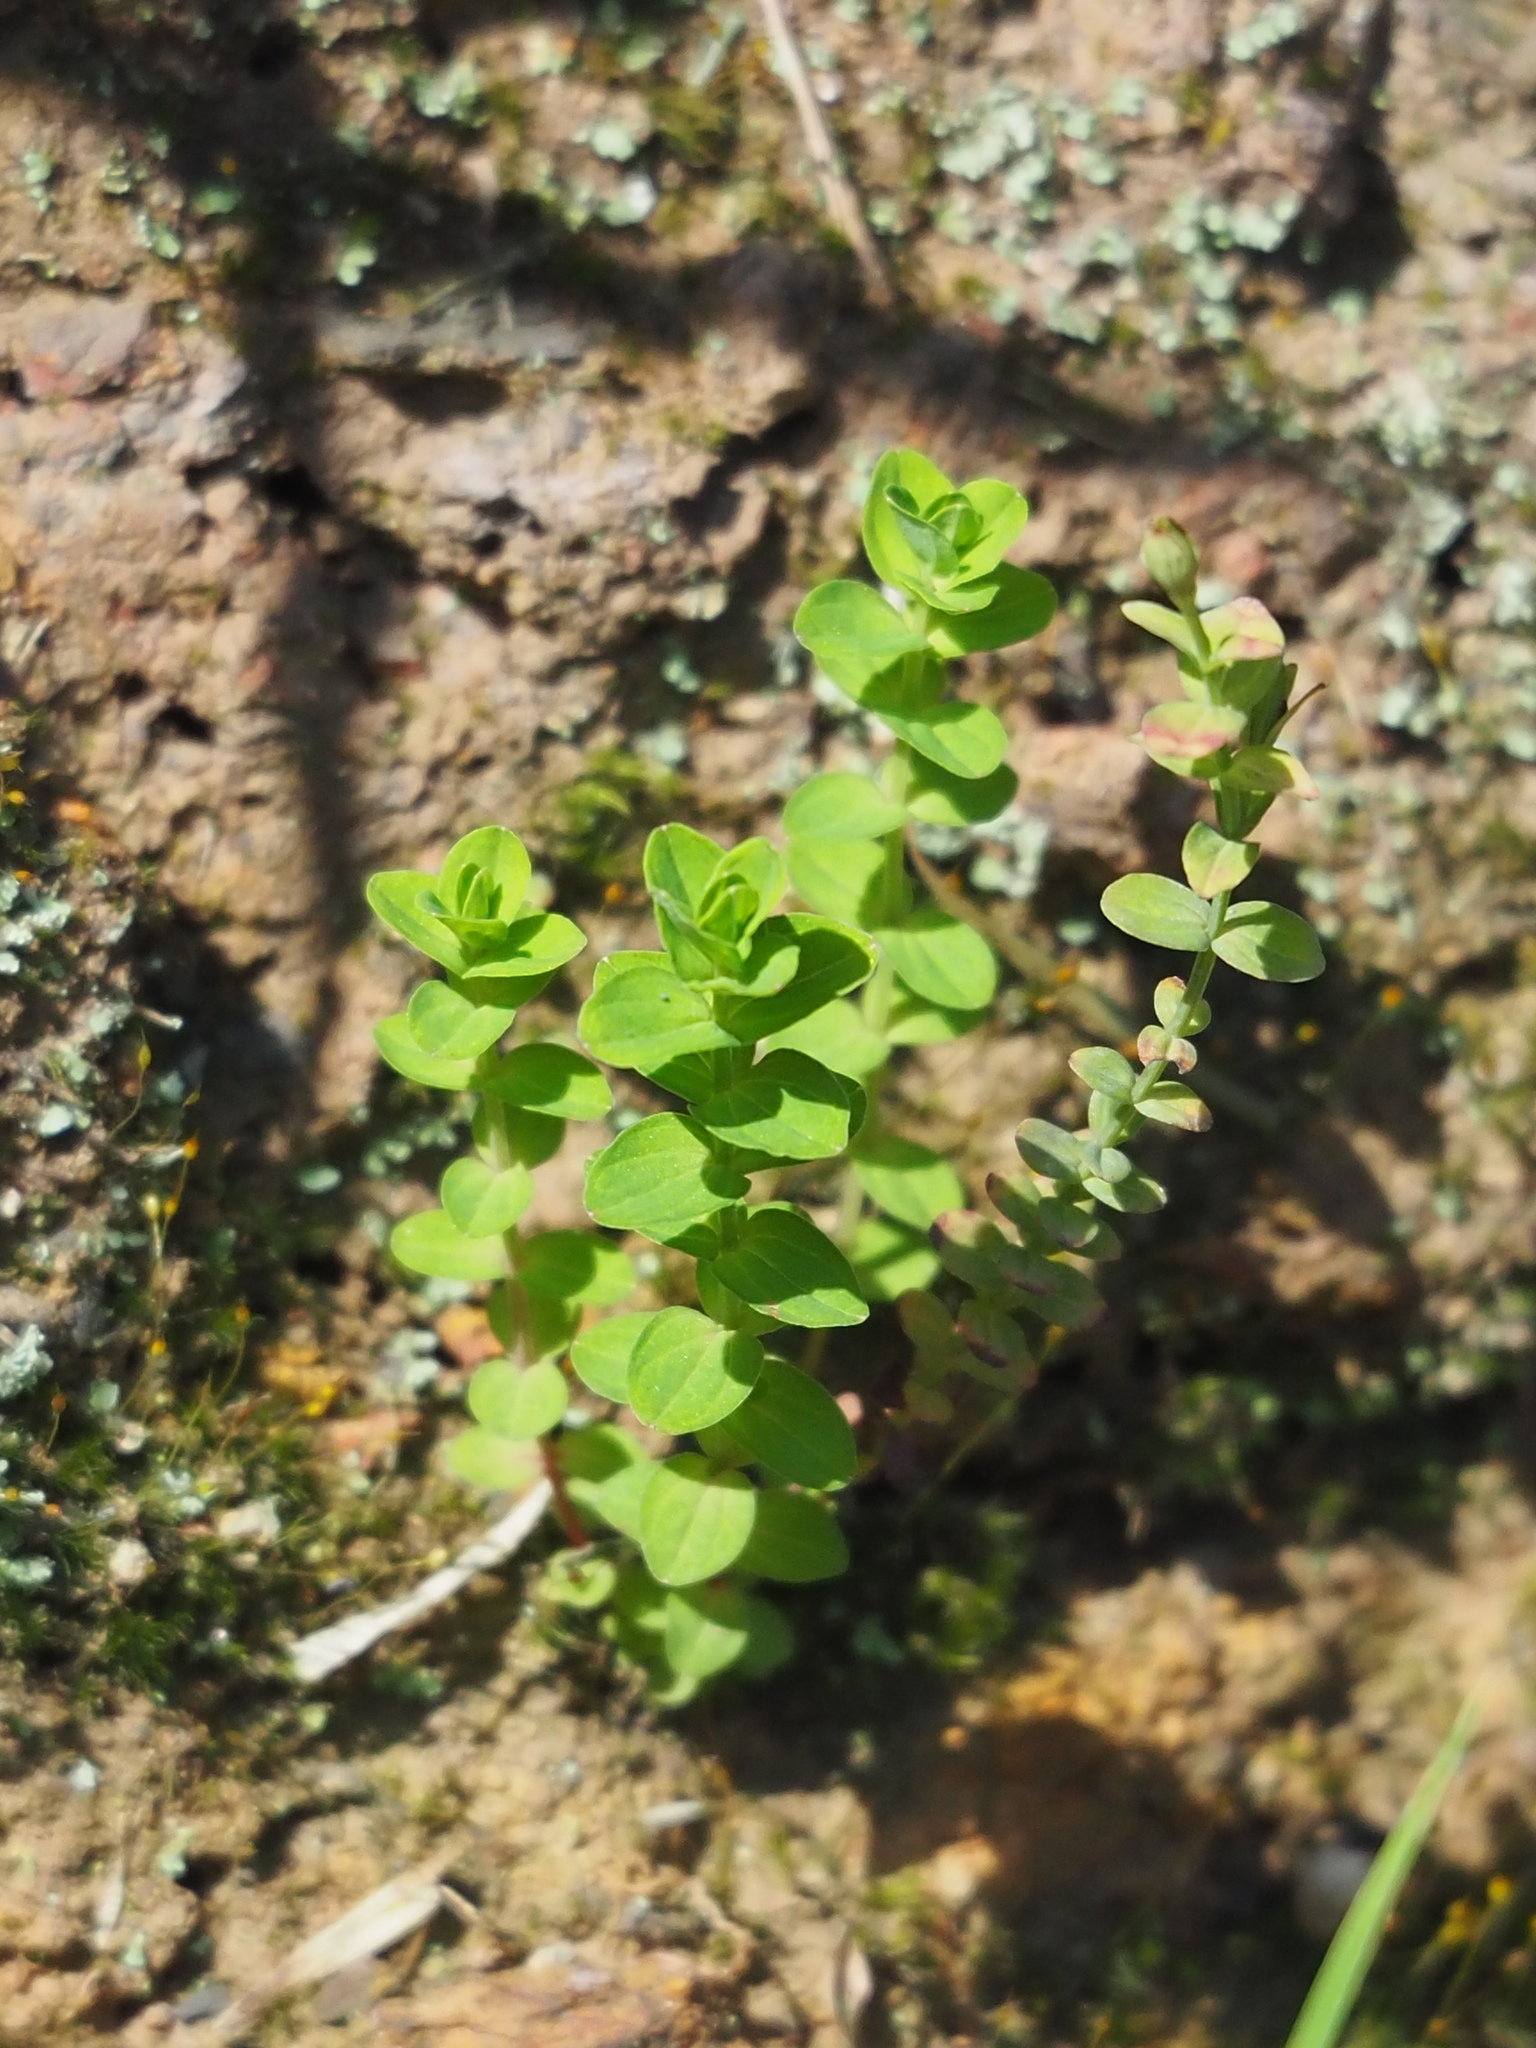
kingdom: Plantae
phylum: Tracheophyta
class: Magnoliopsida
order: Malpighiales
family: Hypericaceae
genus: Hypericum
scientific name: Hypericum japonicum
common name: Matted st. john's-wort
